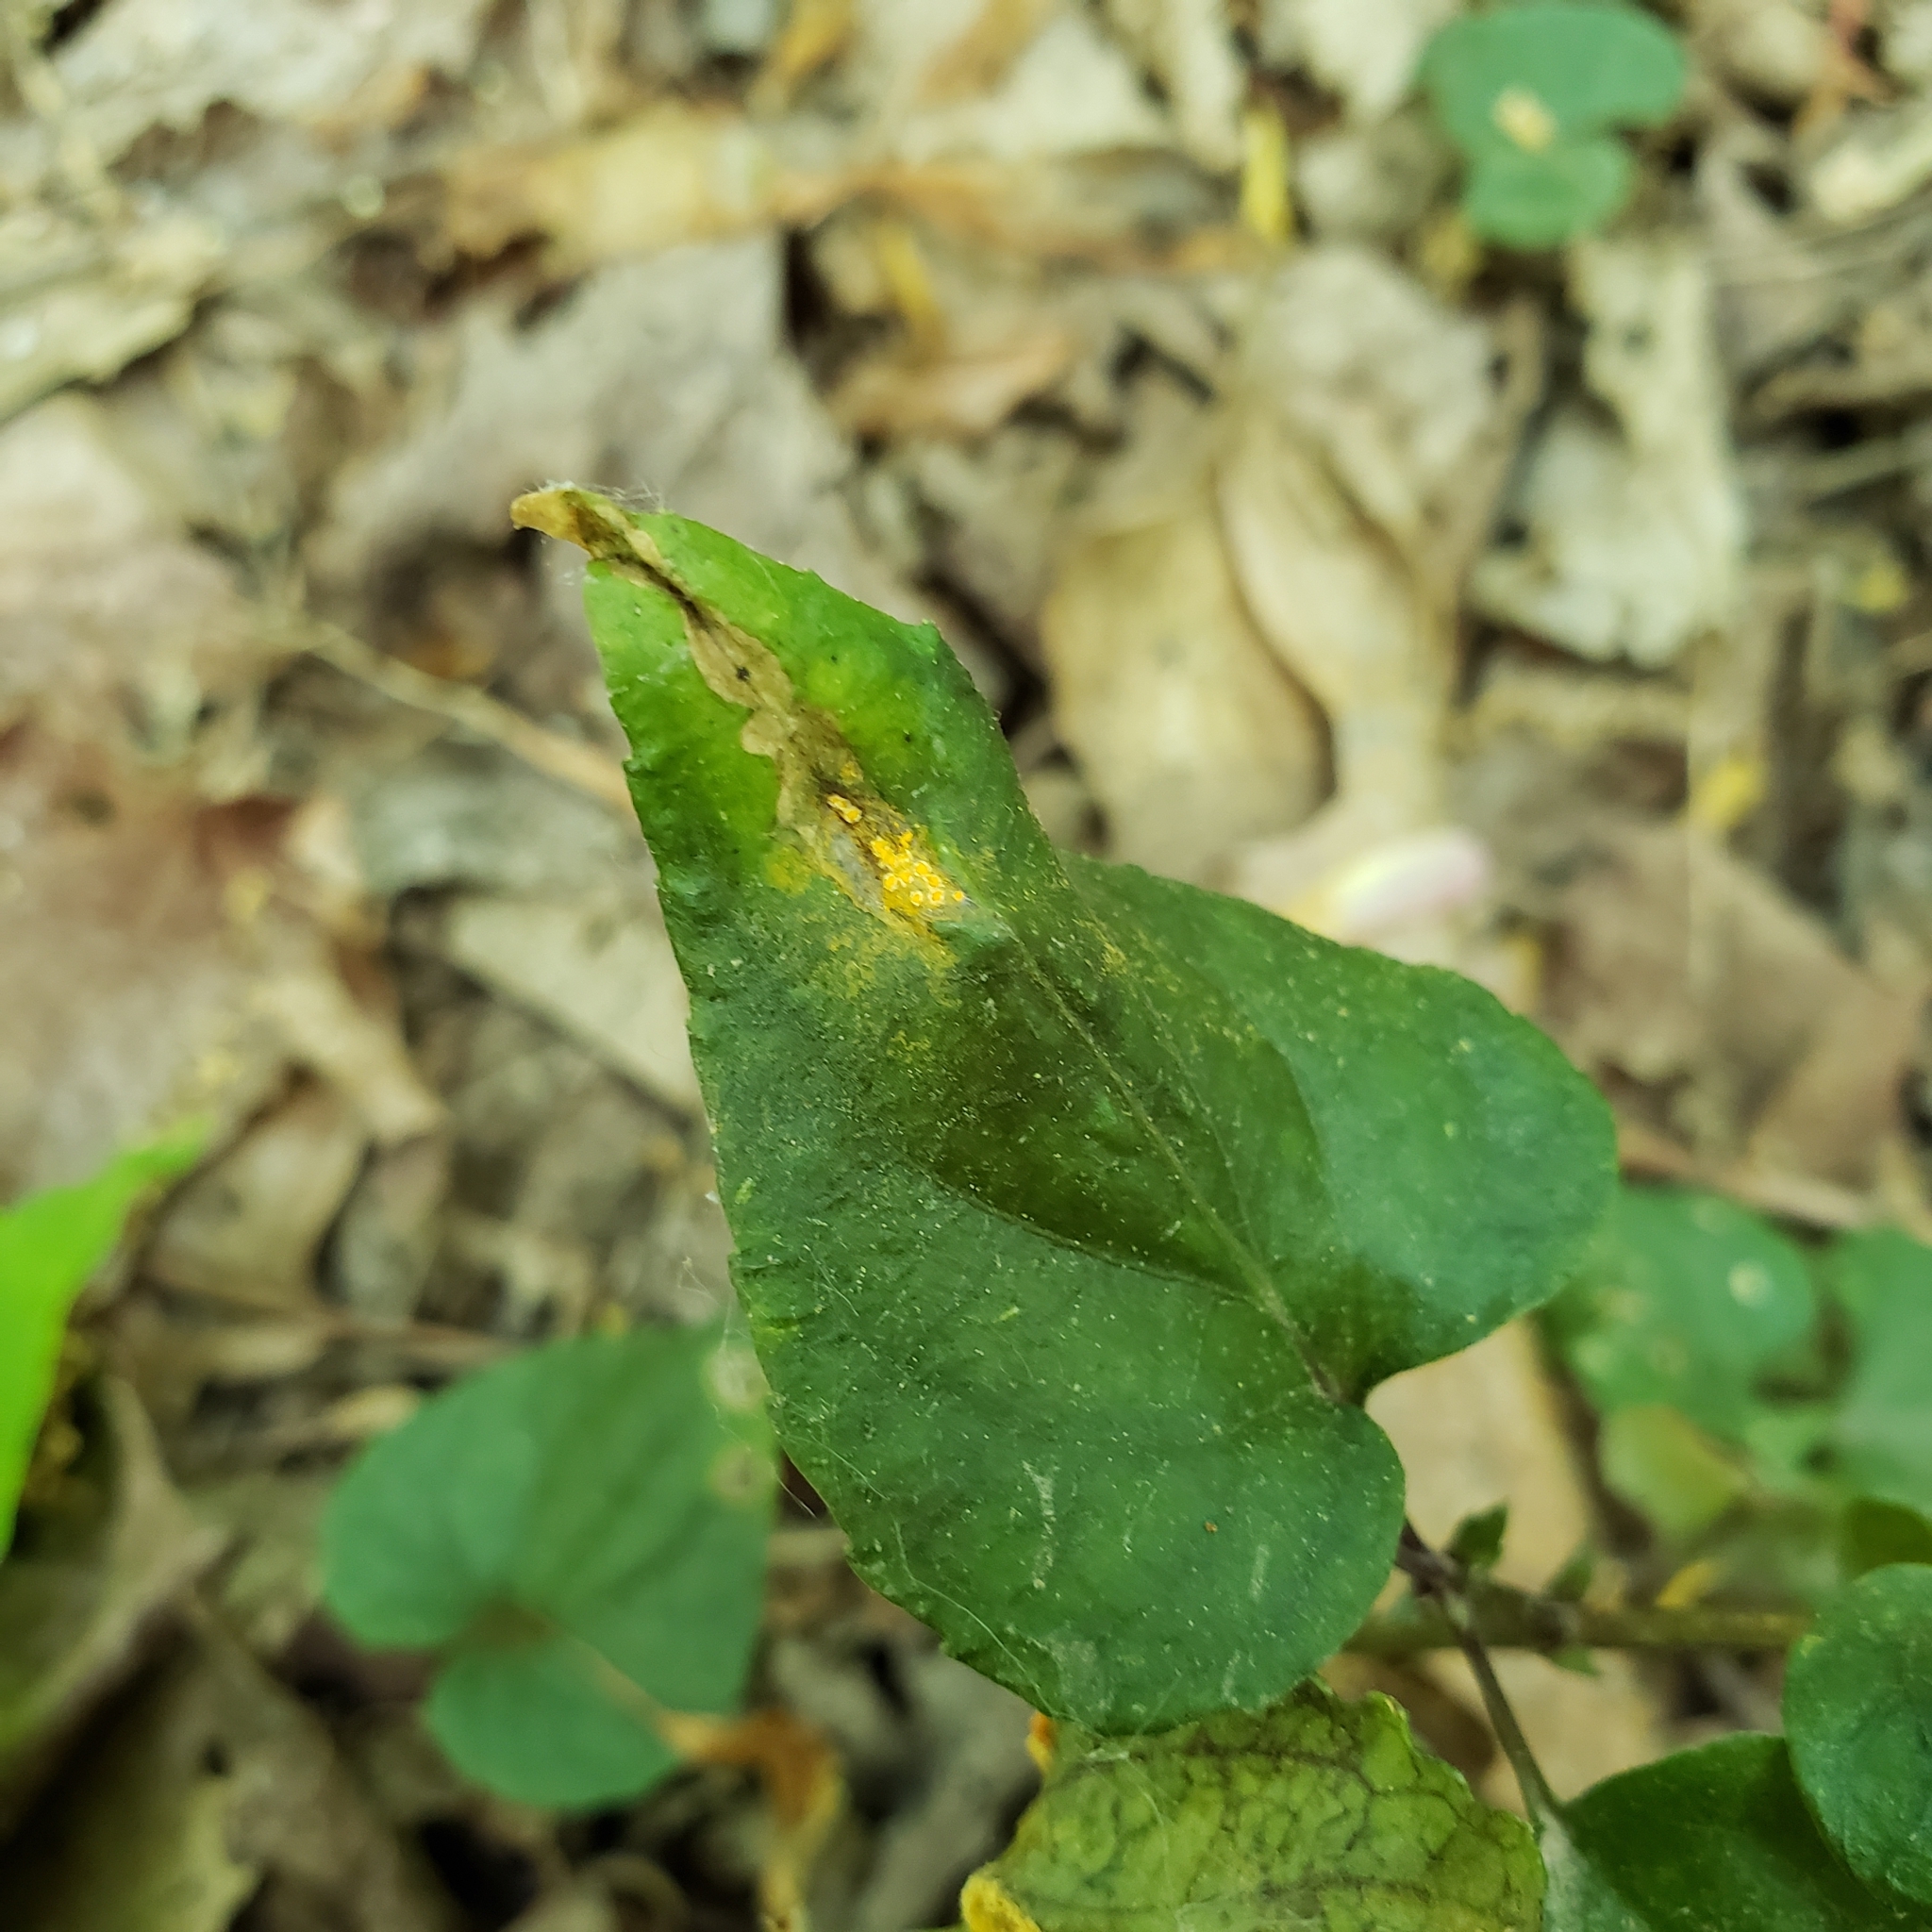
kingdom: Fungi
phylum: Basidiomycota
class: Pucciniomycetes
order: Pucciniales
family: Pucciniaceae
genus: Puccinia
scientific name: Puccinia violae
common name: Violet rust
